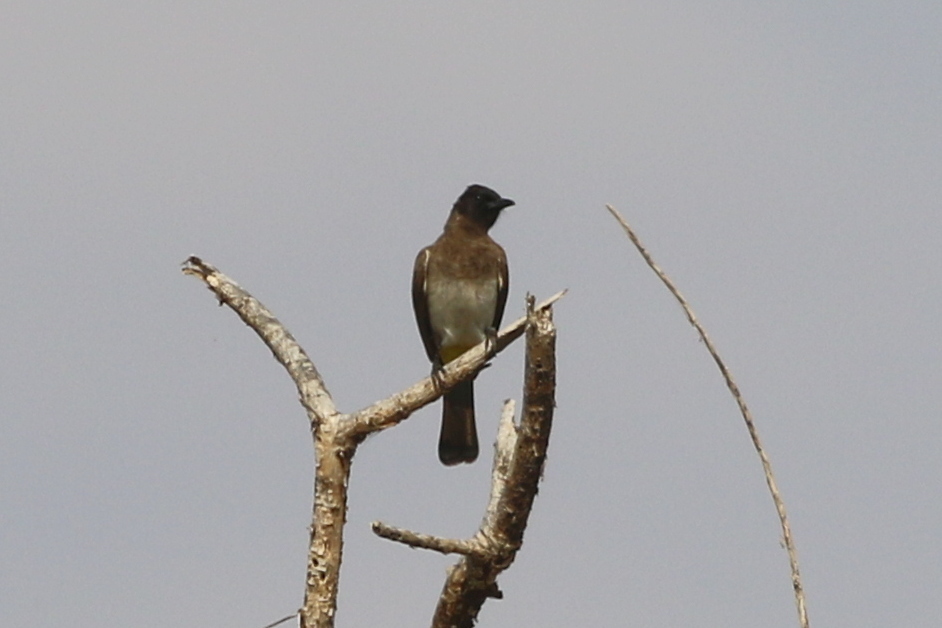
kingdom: Animalia
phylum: Chordata
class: Aves
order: Passeriformes
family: Pycnonotidae
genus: Pycnonotus
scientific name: Pycnonotus barbatus
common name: Common bulbul
